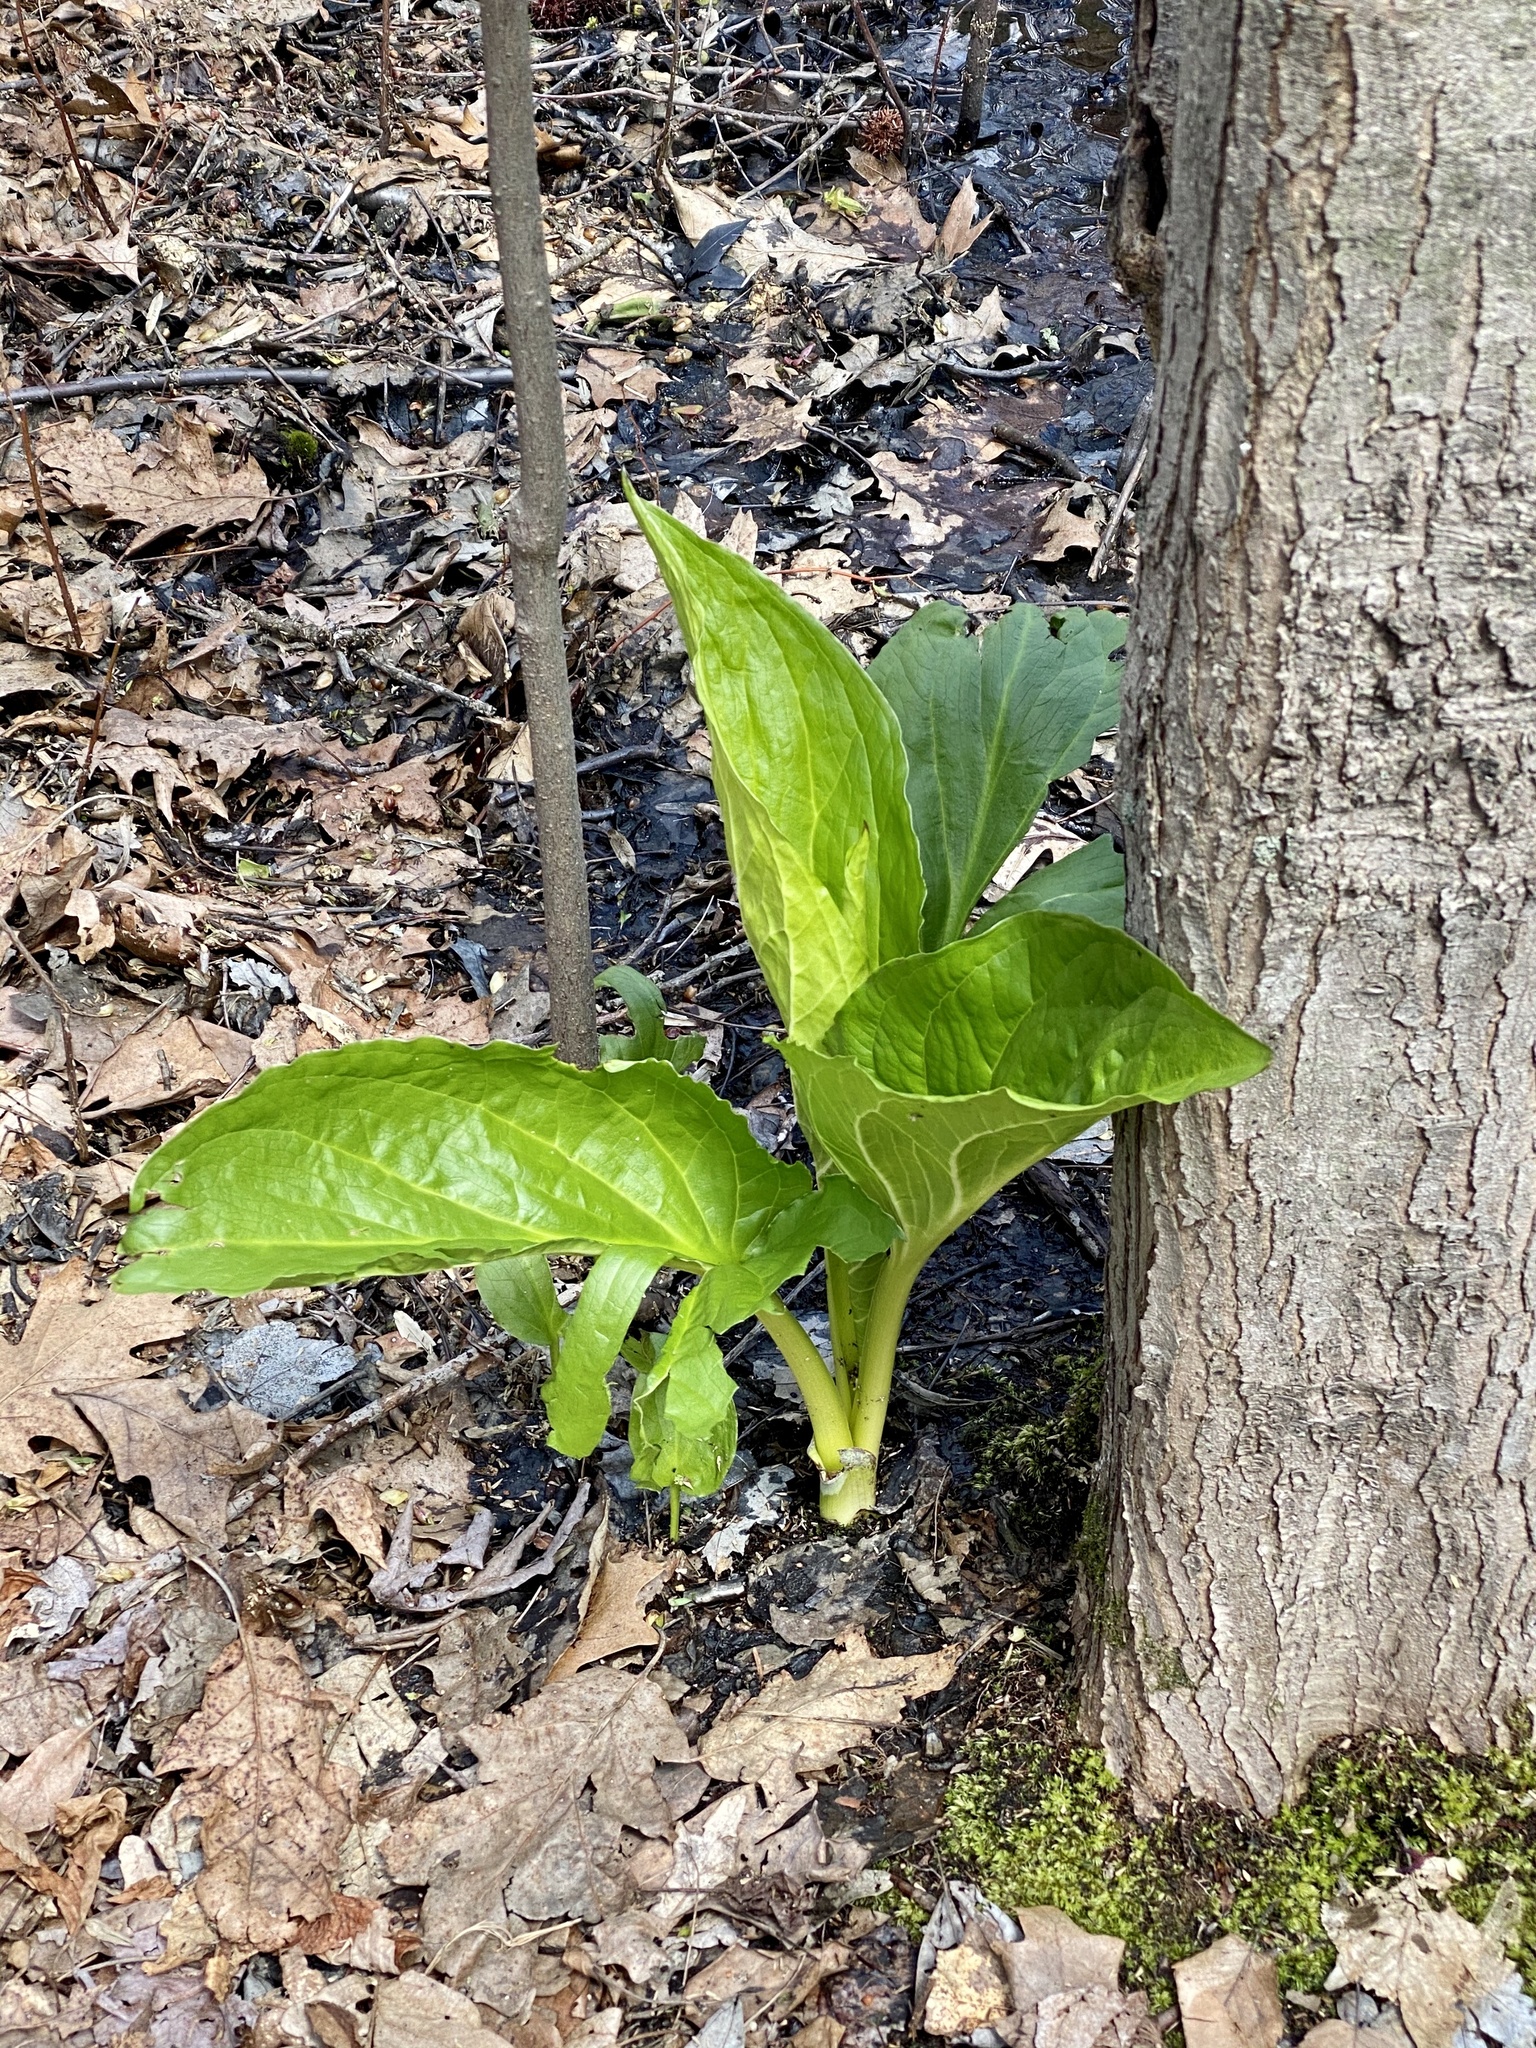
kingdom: Plantae
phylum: Tracheophyta
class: Liliopsida
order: Alismatales
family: Araceae
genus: Symplocarpus
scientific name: Symplocarpus foetidus
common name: Eastern skunk cabbage
